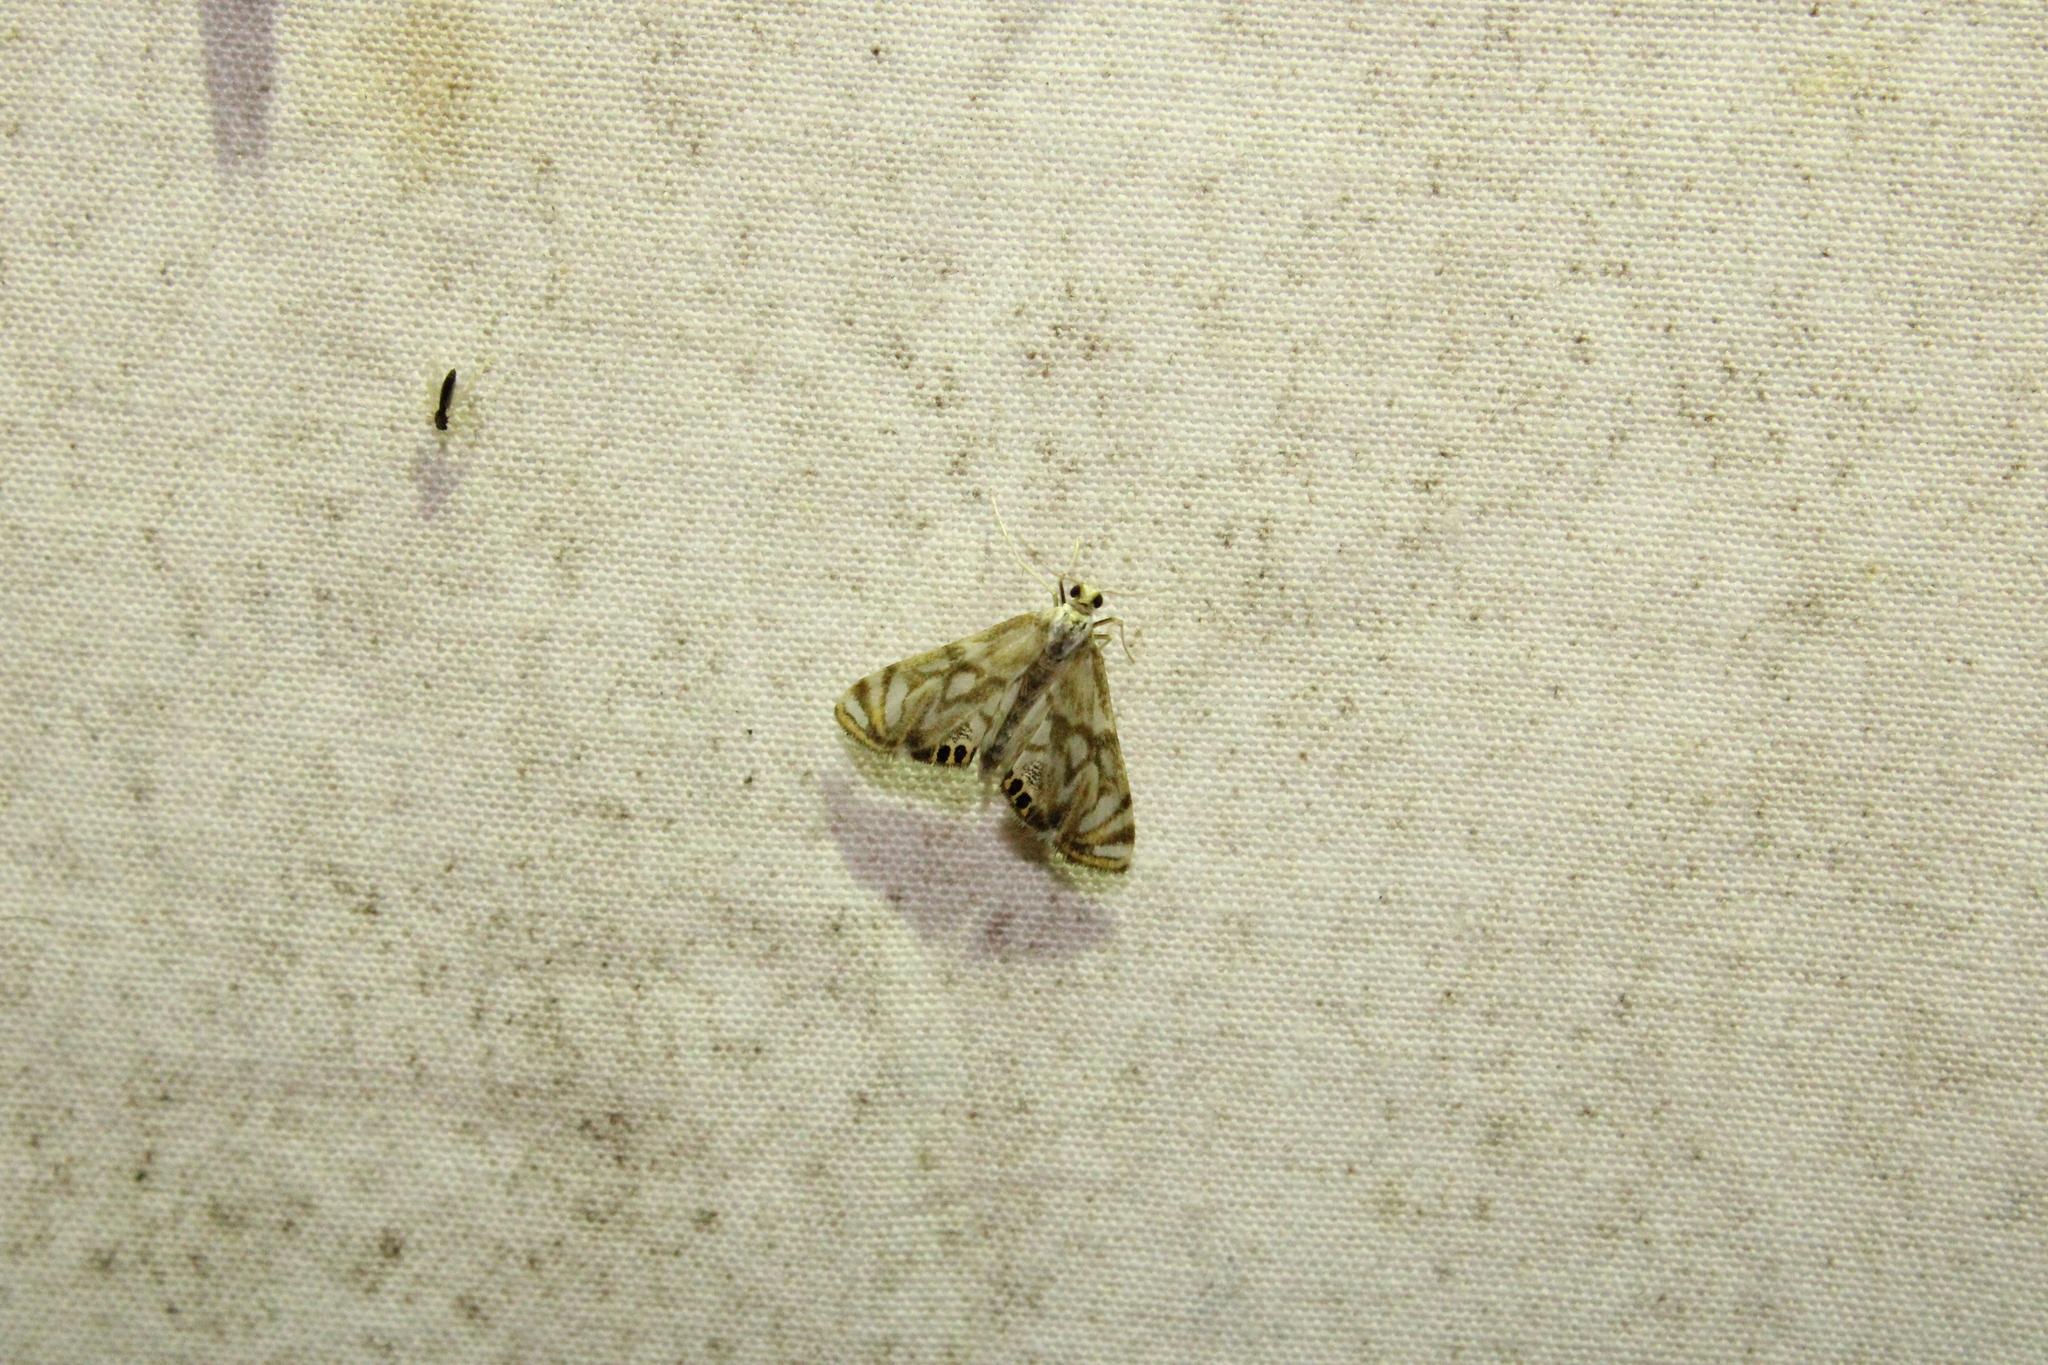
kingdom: Animalia
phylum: Arthropoda
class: Insecta
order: Lepidoptera
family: Crambidae
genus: Neocataclysta
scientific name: Neocataclysta magnificalis
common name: Scrollwork pyralid moth
